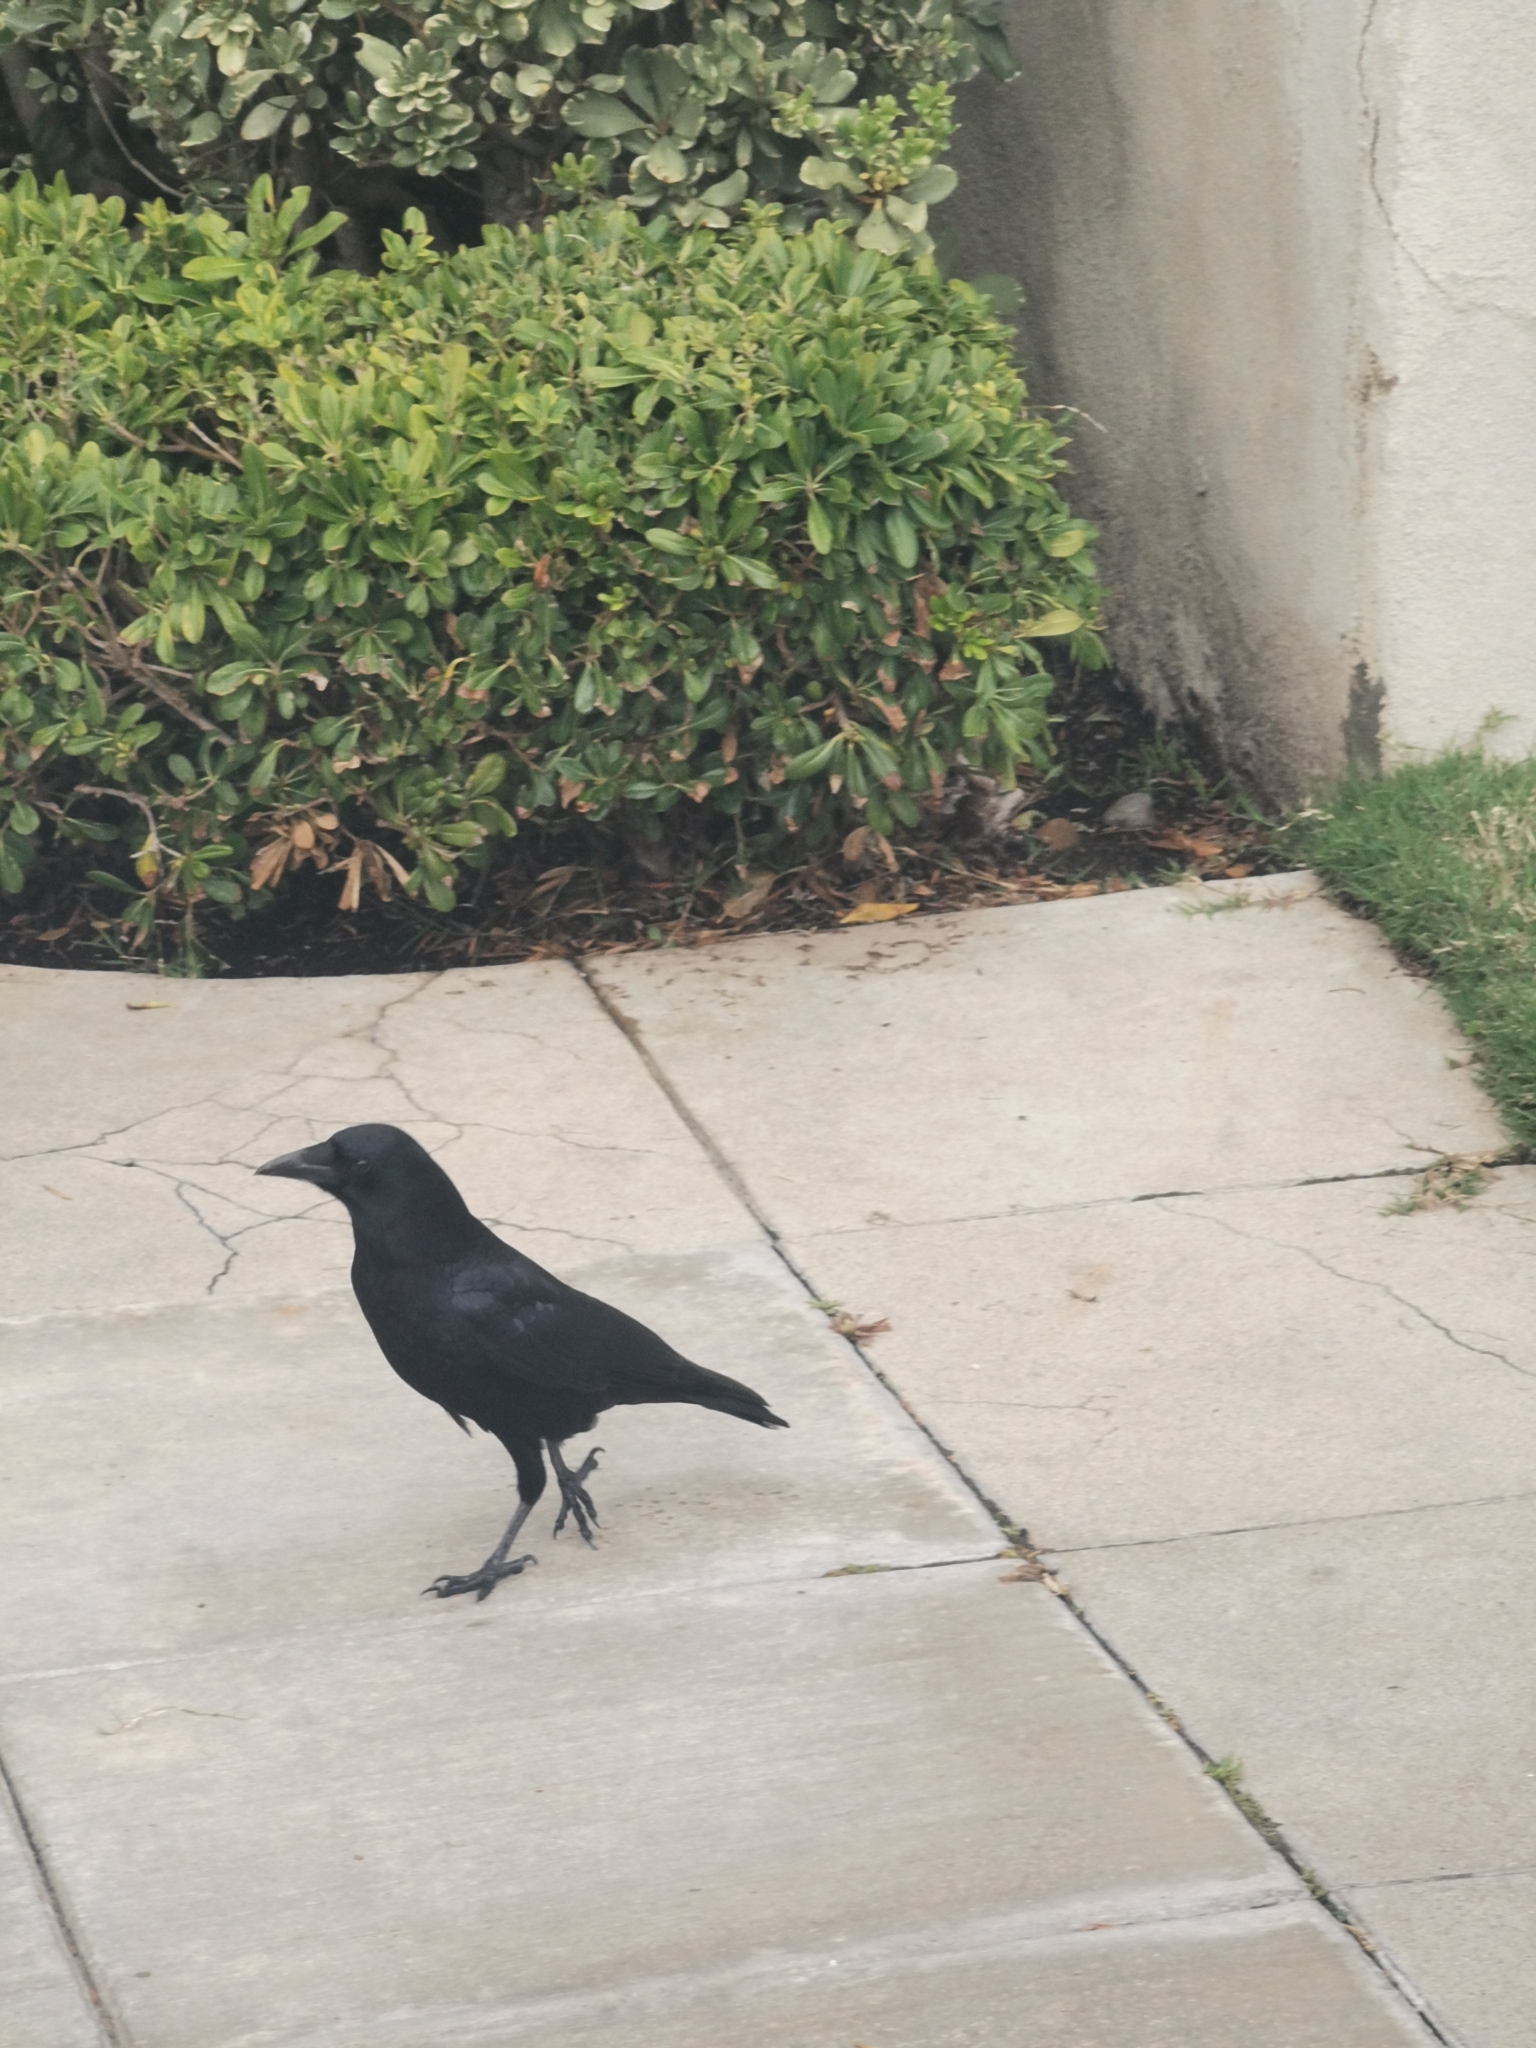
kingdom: Animalia
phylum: Chordata
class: Aves
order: Passeriformes
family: Corvidae
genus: Corvus
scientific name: Corvus brachyrhynchos
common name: American crow
